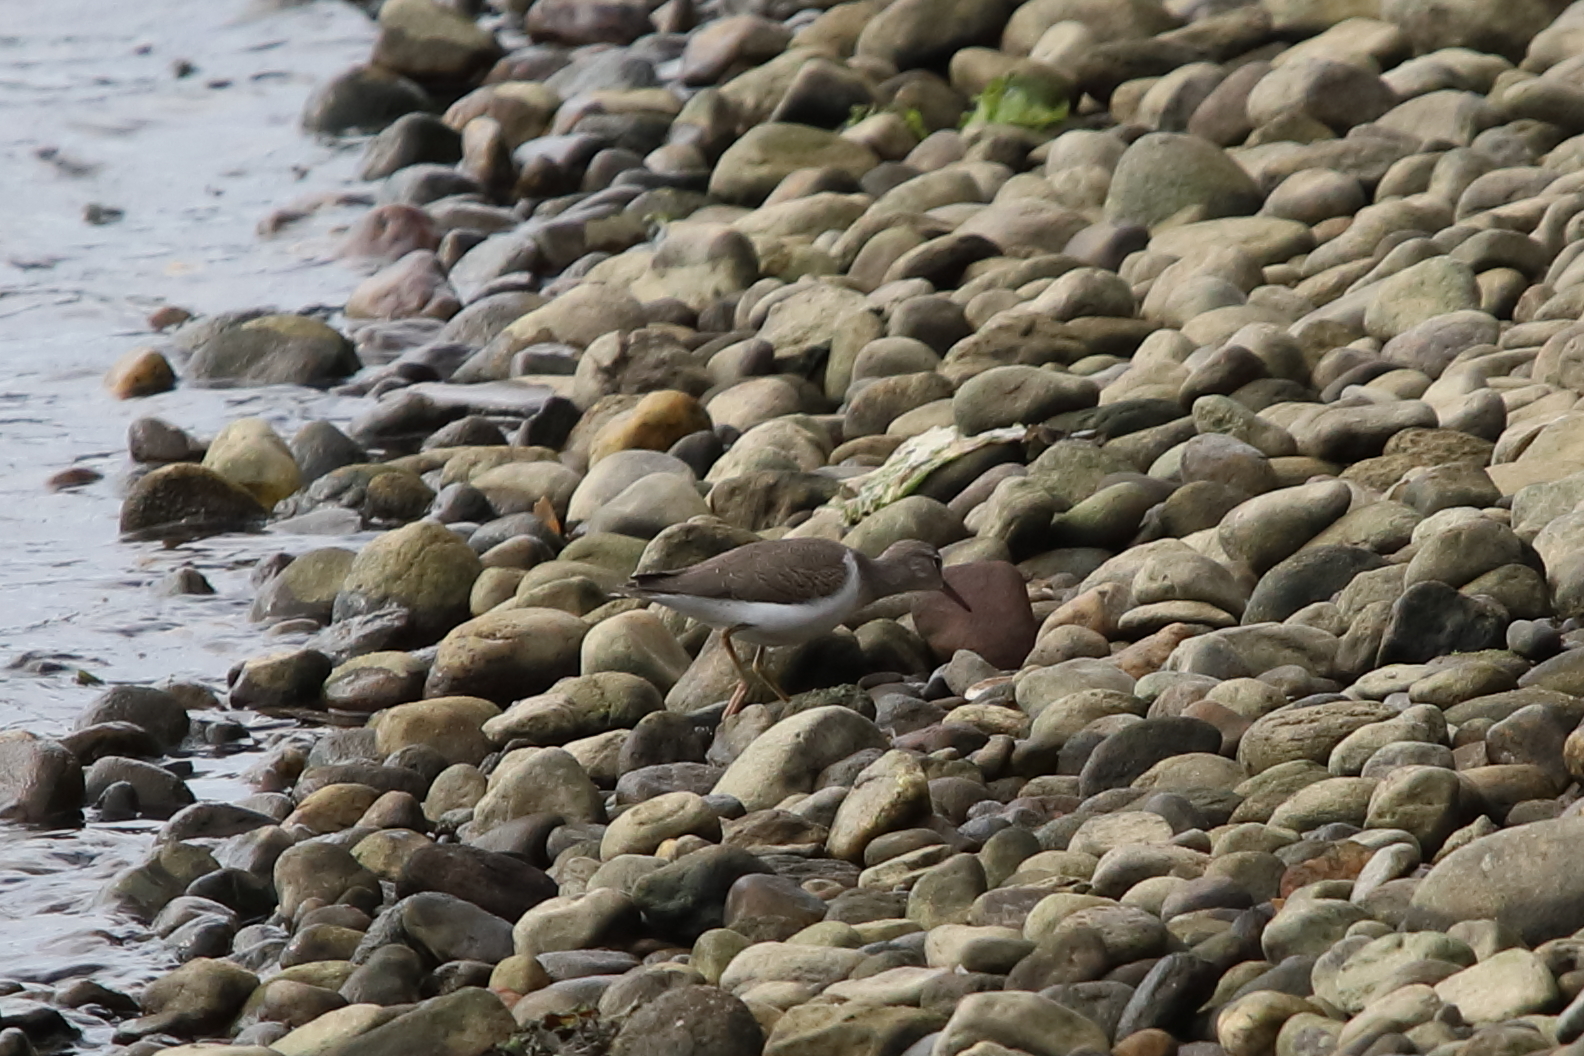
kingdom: Animalia
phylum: Chordata
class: Aves
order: Charadriiformes
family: Scolopacidae
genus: Actitis
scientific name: Actitis macularius
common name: Spotted sandpiper
